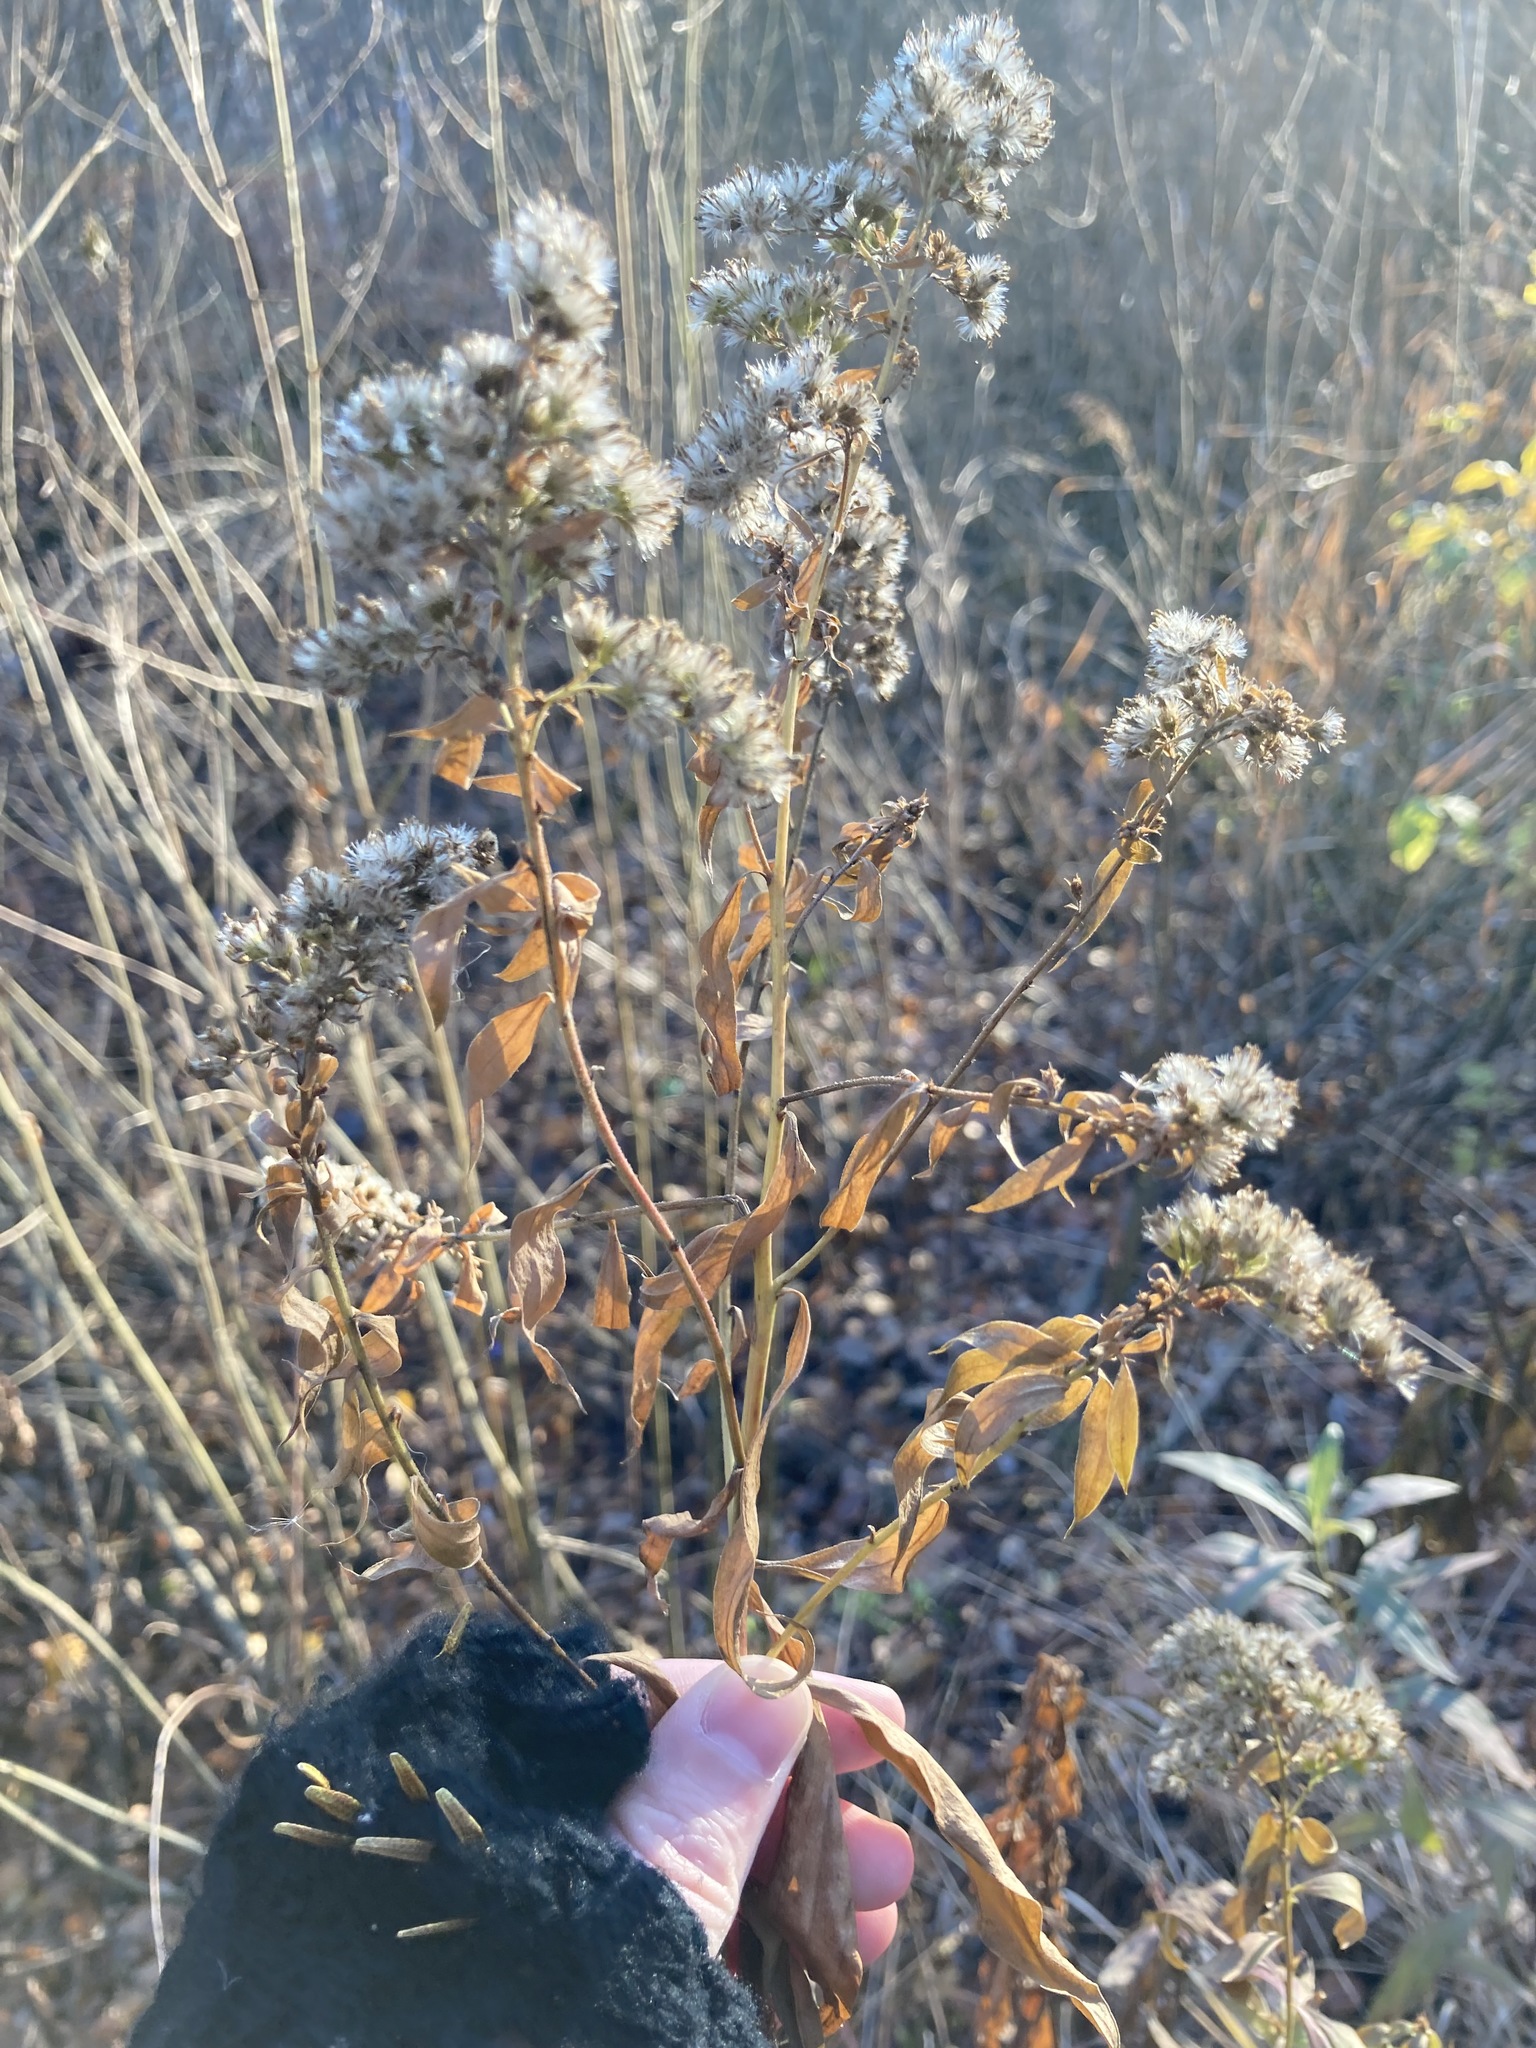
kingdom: Plantae
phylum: Tracheophyta
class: Magnoliopsida
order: Asterales
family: Asteraceae
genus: Solidago
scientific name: Solidago canadensis
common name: Canada goldenrod
